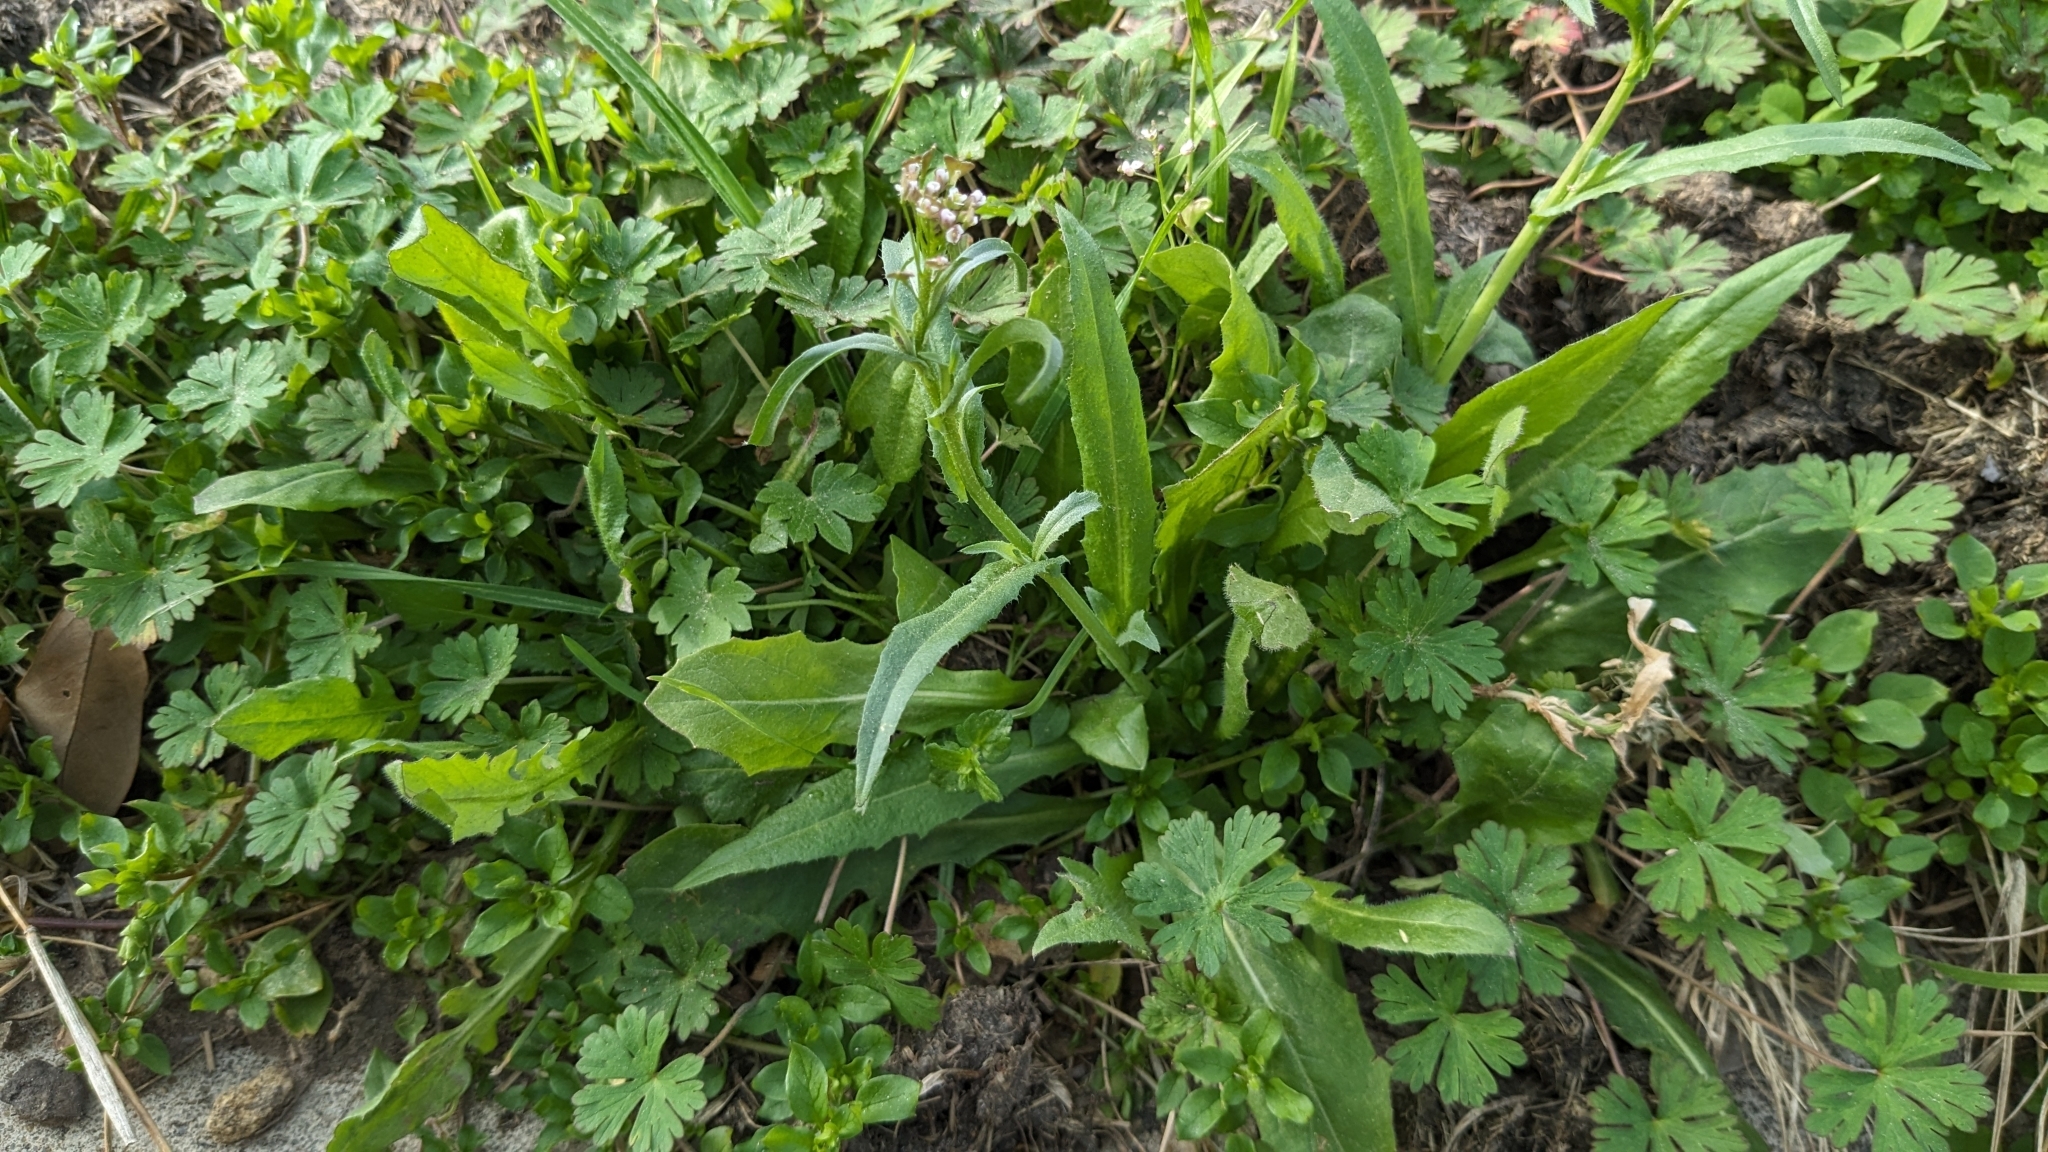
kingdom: Plantae
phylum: Tracheophyta
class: Magnoliopsida
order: Brassicales
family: Brassicaceae
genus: Capsella
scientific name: Capsella bursa-pastoris
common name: Shepherd's purse
